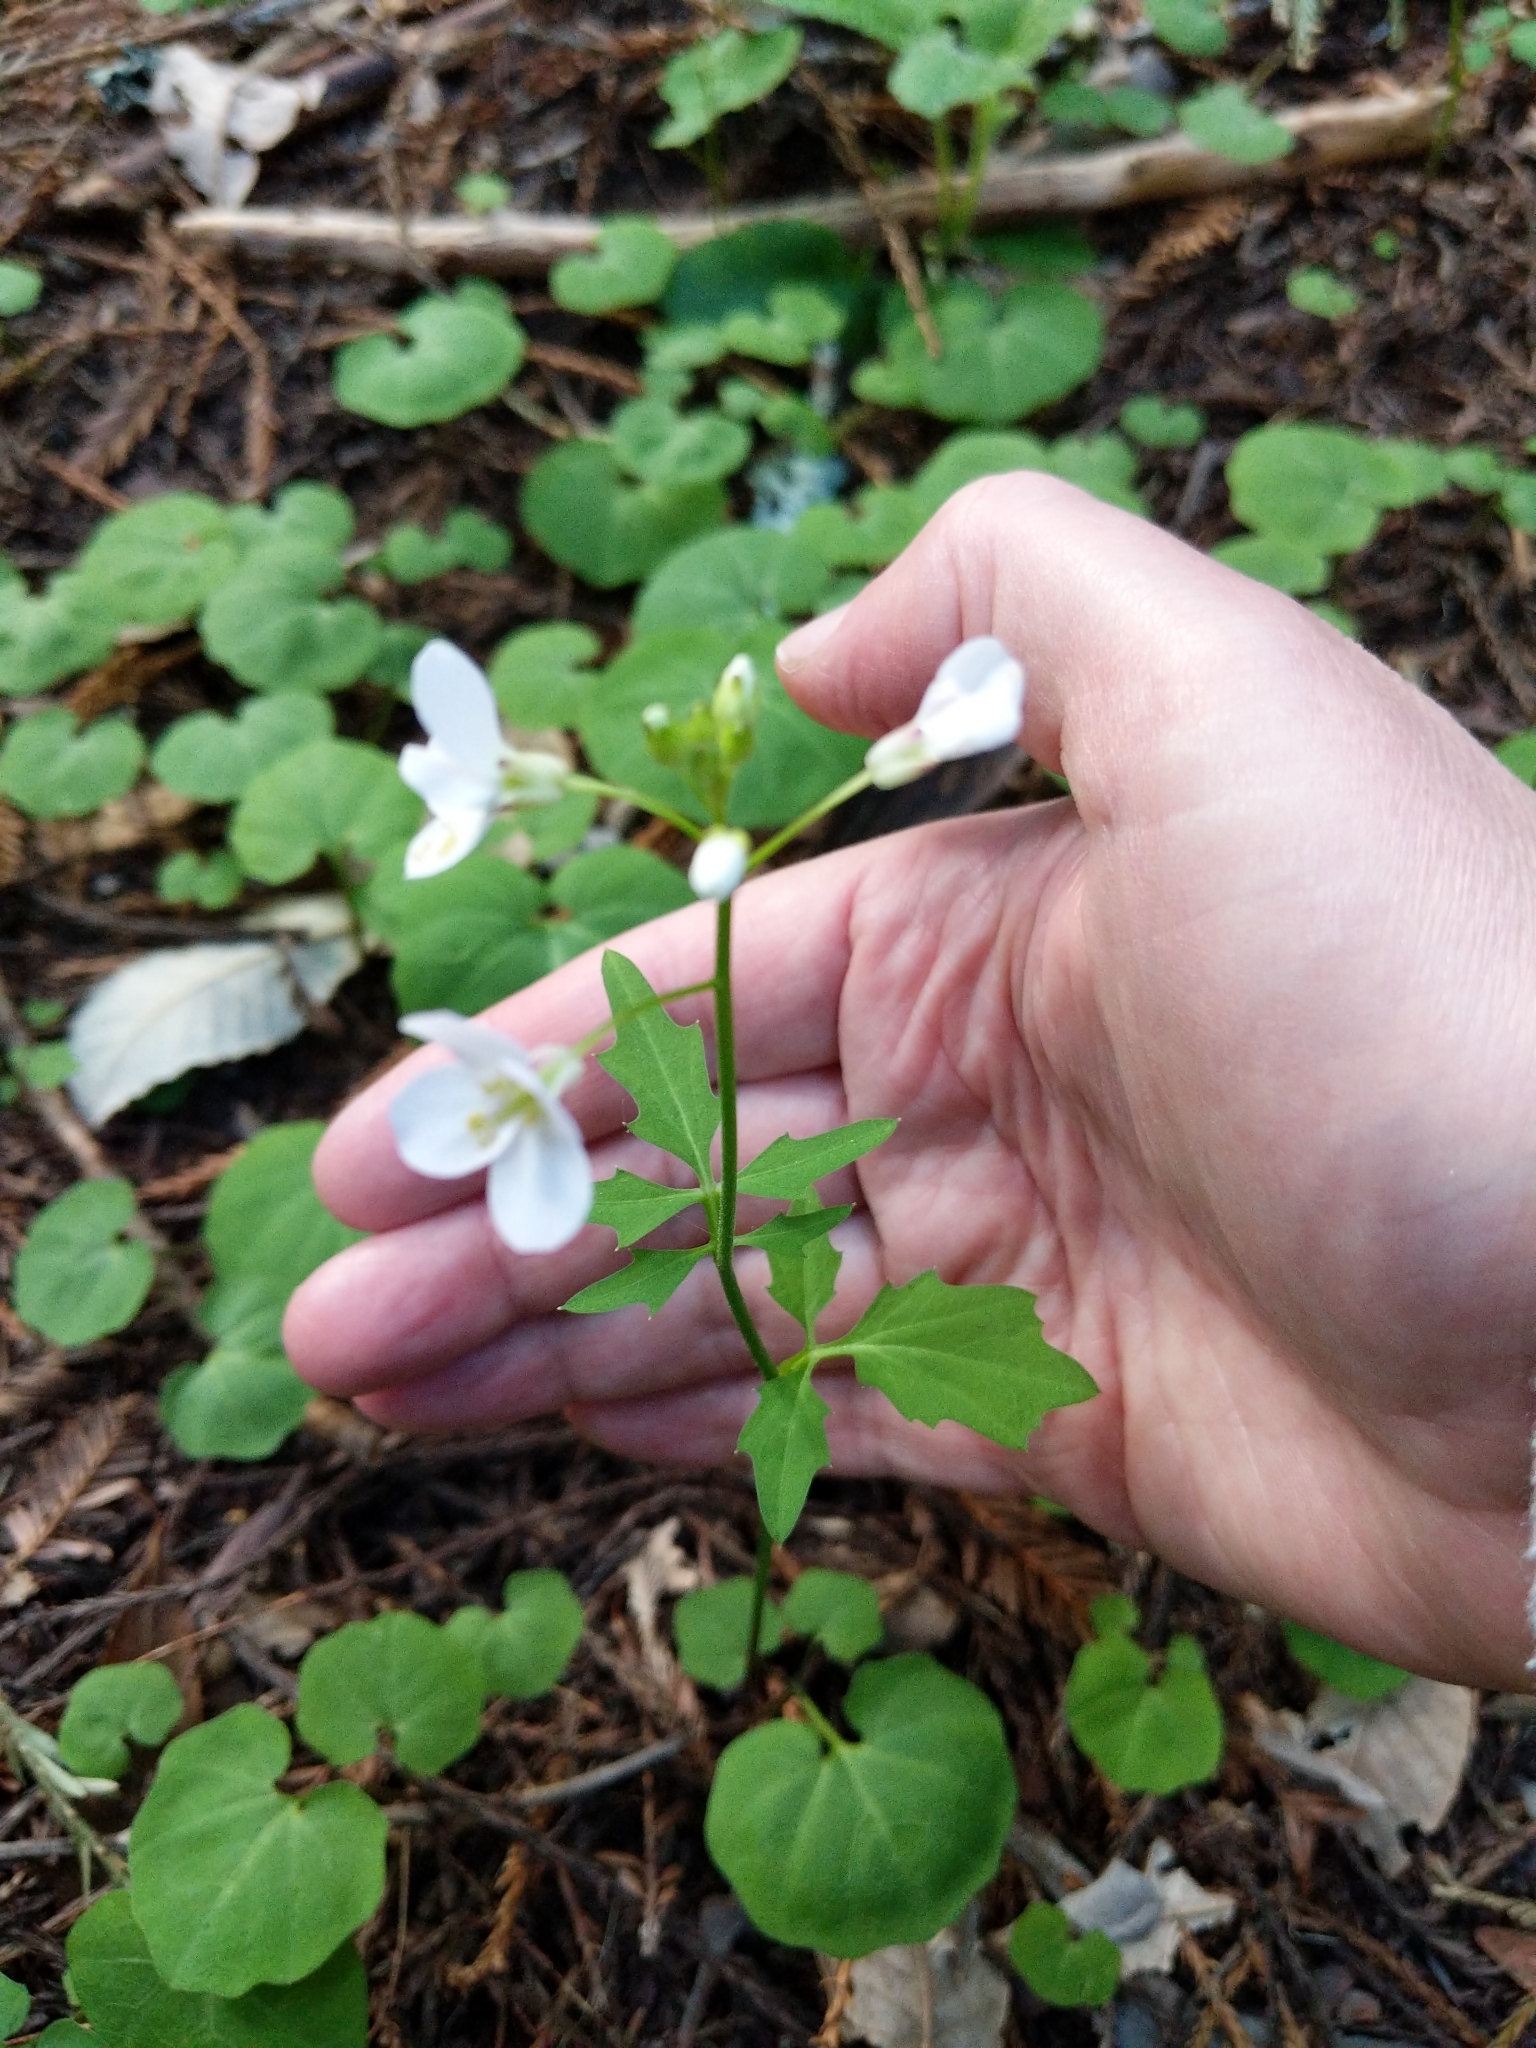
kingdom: Plantae
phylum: Tracheophyta
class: Magnoliopsida
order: Brassicales
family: Brassicaceae
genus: Cardamine
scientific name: Cardamine californica
